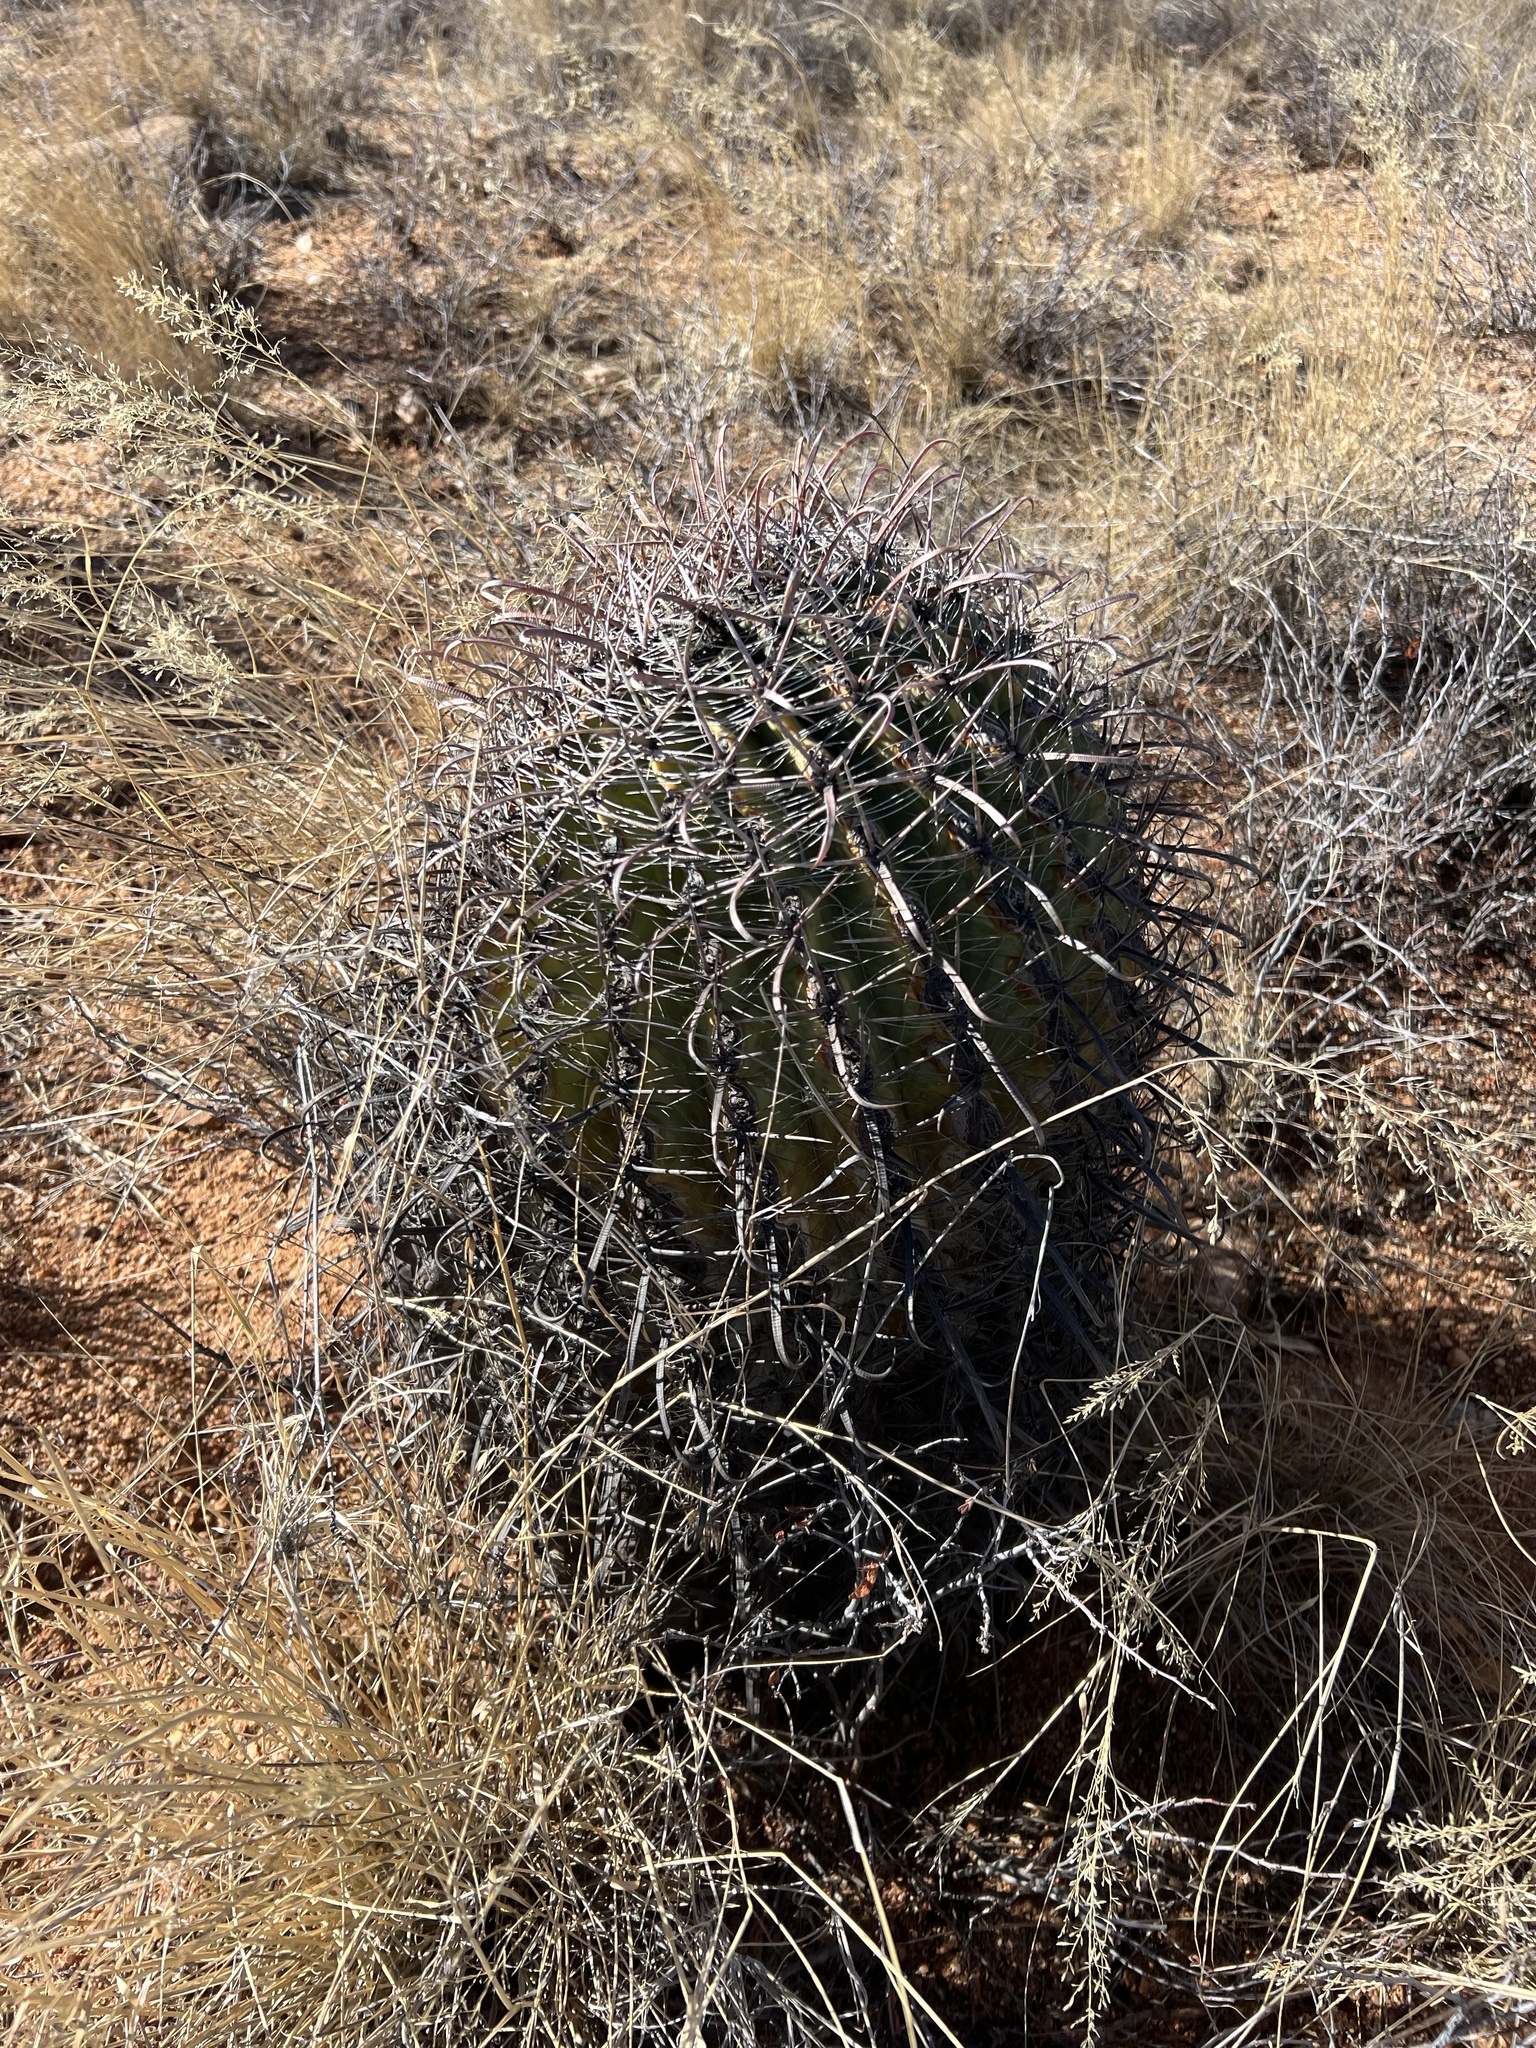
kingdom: Plantae
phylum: Tracheophyta
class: Magnoliopsida
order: Caryophyllales
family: Cactaceae
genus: Ferocactus
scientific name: Ferocactus wislizeni
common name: Candy barrel cactus
